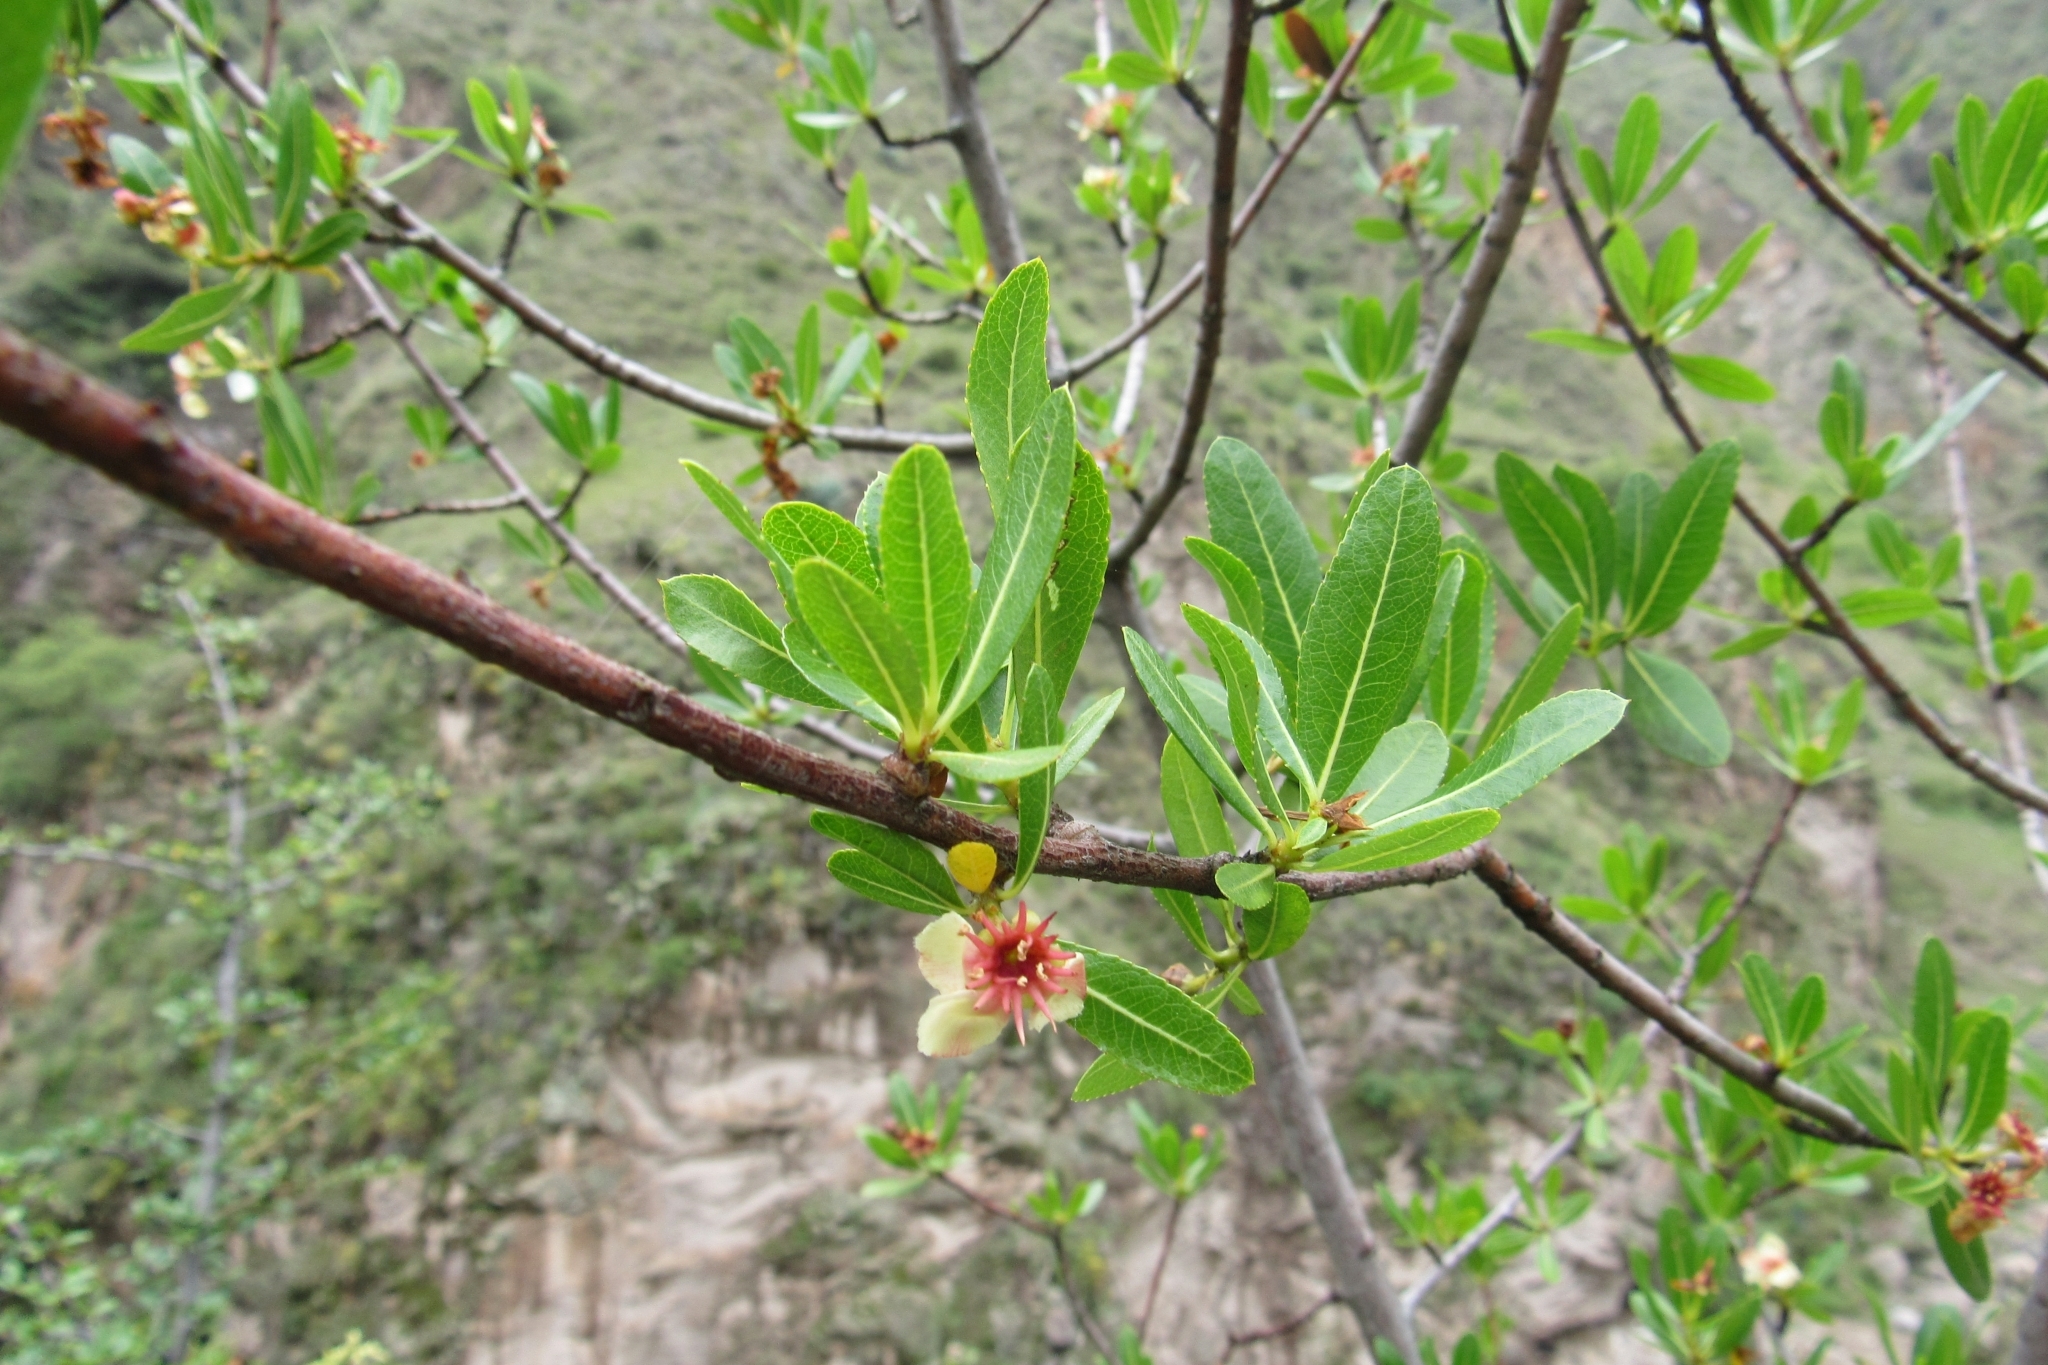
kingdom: Plantae
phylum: Tracheophyta
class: Magnoliopsida
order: Rosales
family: Rosaceae
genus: Kageneckia
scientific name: Kageneckia lanceolata
